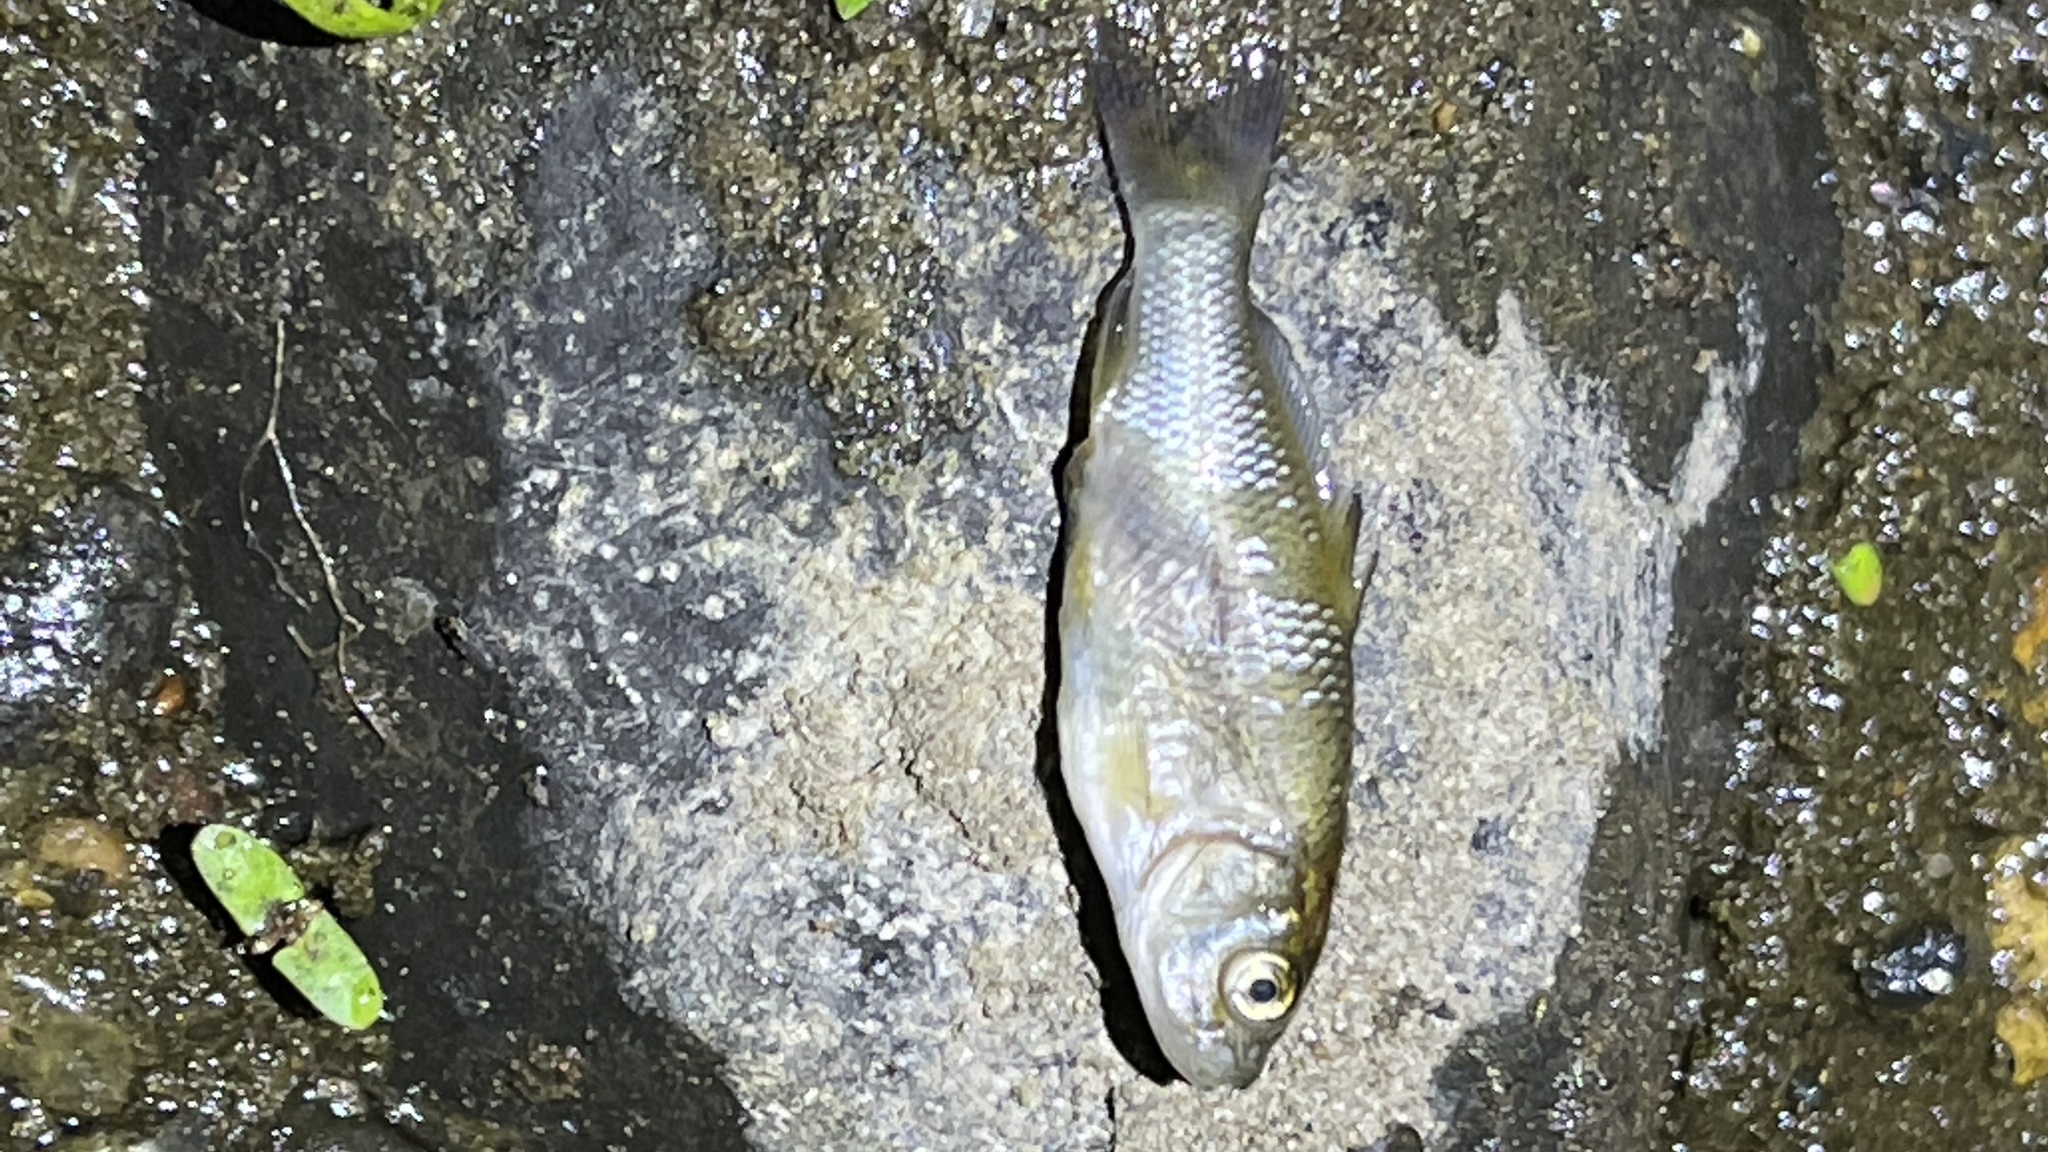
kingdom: Animalia
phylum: Chordata
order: Cypriniformes
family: Cyprinidae
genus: Cyprinus
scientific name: Cyprinus carpio
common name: Common carp
